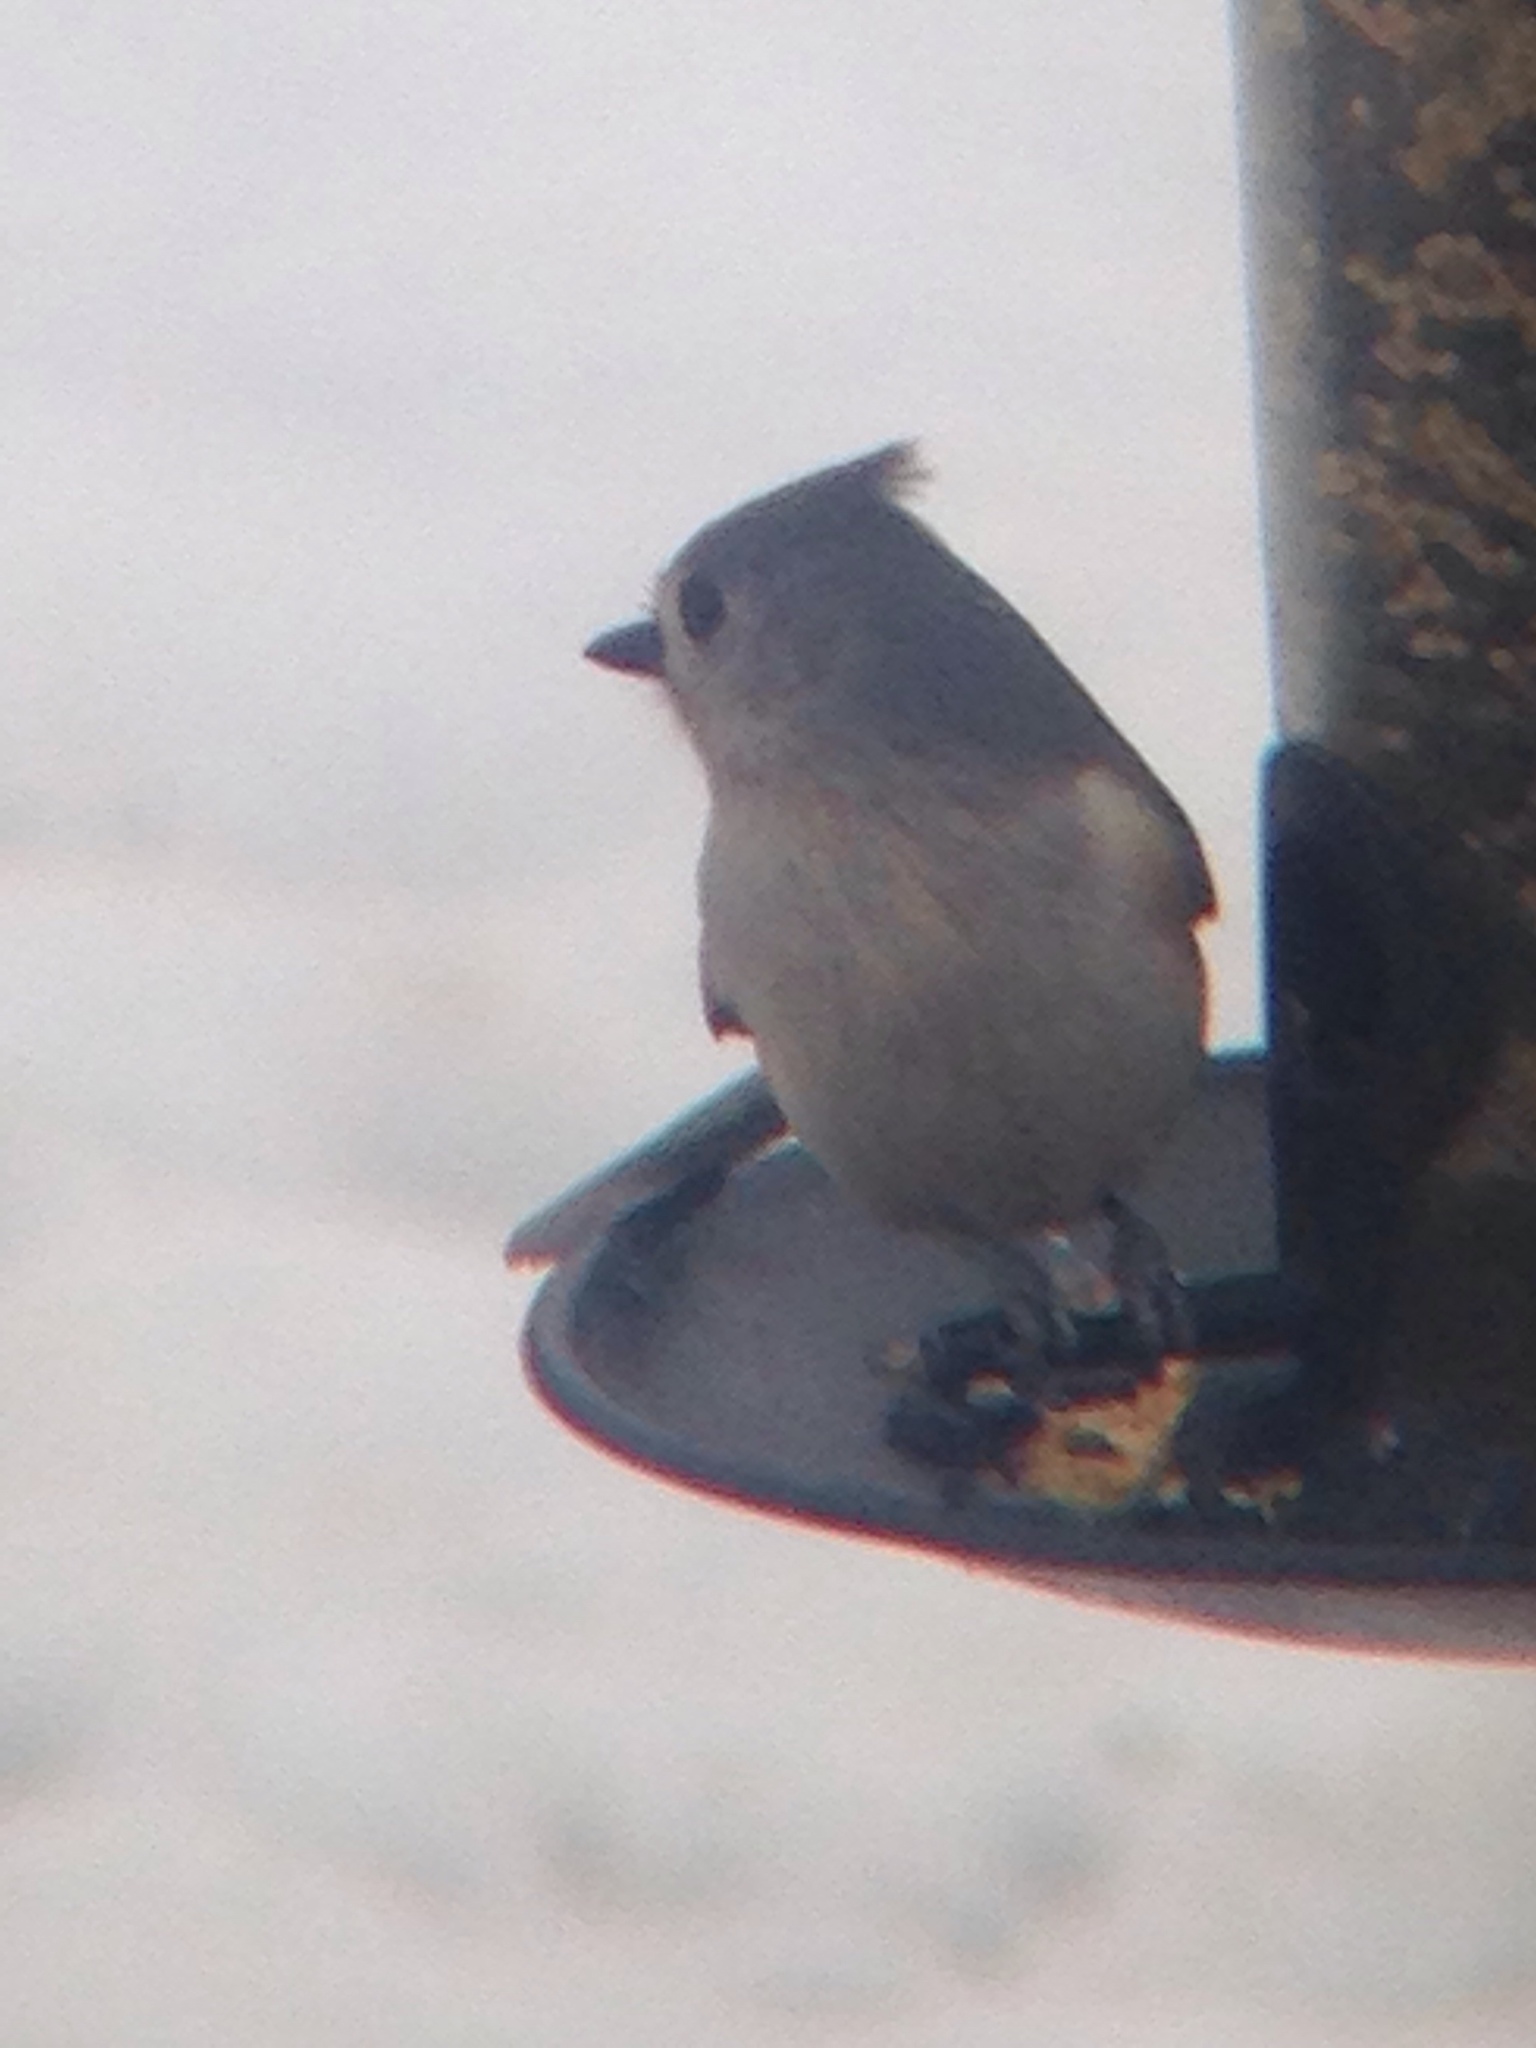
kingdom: Animalia
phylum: Chordata
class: Aves
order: Passeriformes
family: Paridae
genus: Baeolophus
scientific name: Baeolophus bicolor
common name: Tufted titmouse
